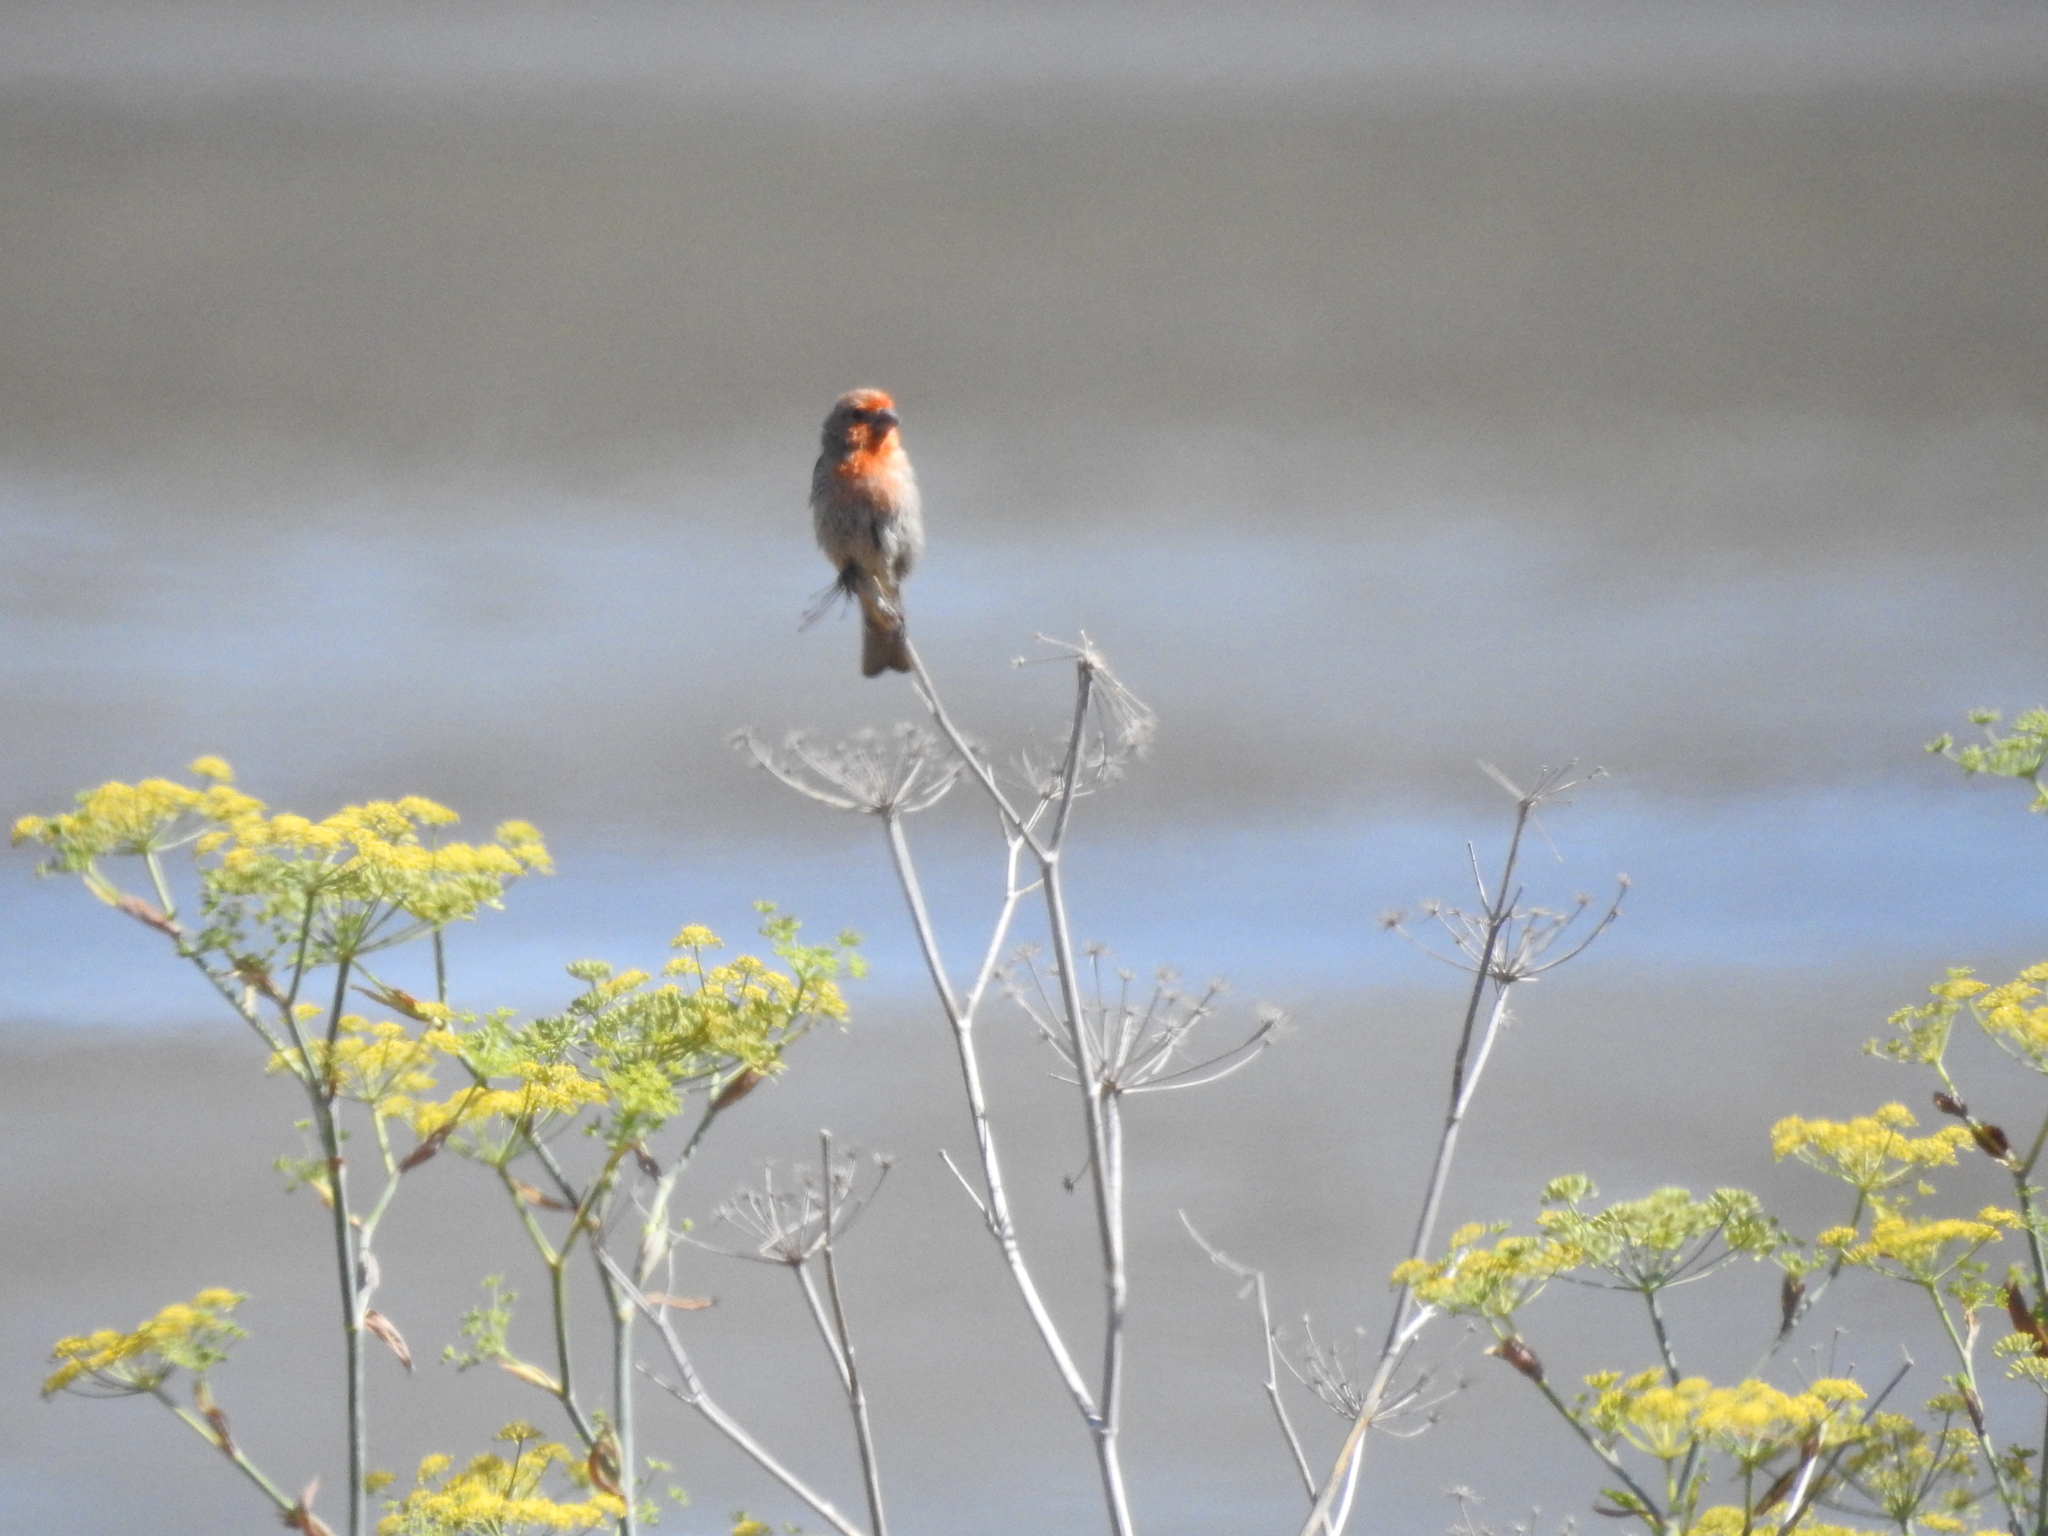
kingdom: Animalia
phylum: Chordata
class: Aves
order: Passeriformes
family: Fringillidae
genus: Haemorhous
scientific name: Haemorhous mexicanus
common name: House finch
